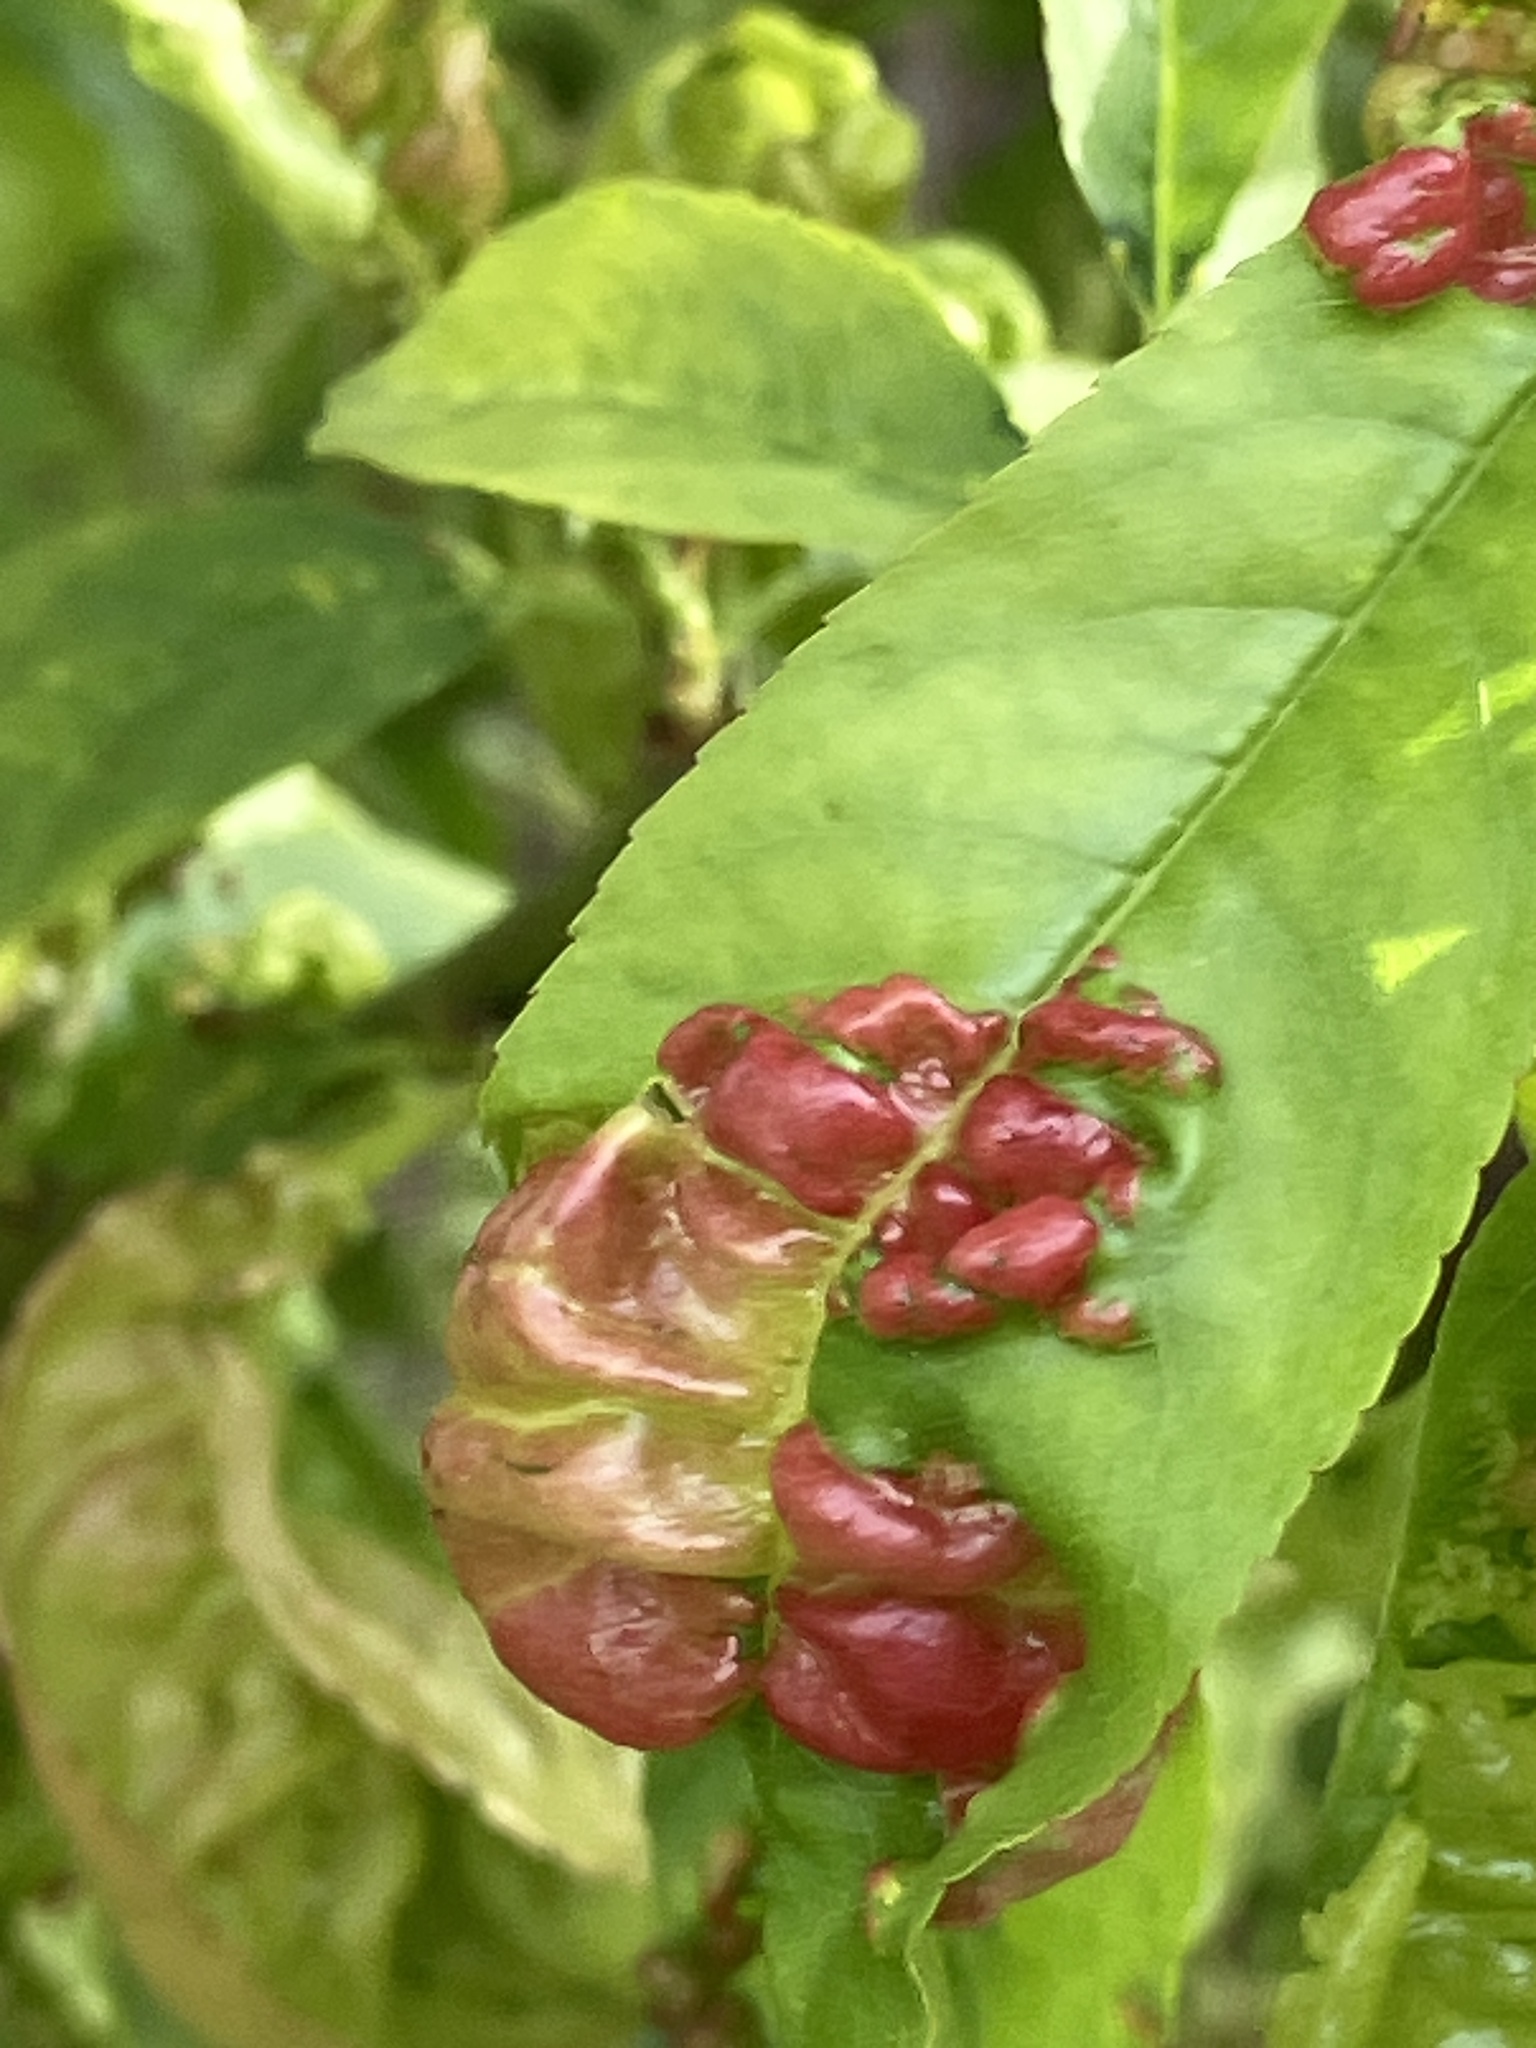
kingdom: Fungi
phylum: Ascomycota
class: Taphrinomycetes
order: Taphrinales
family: Taphrinaceae
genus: Taphrina
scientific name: Taphrina deformans
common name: Peach leaf curl
